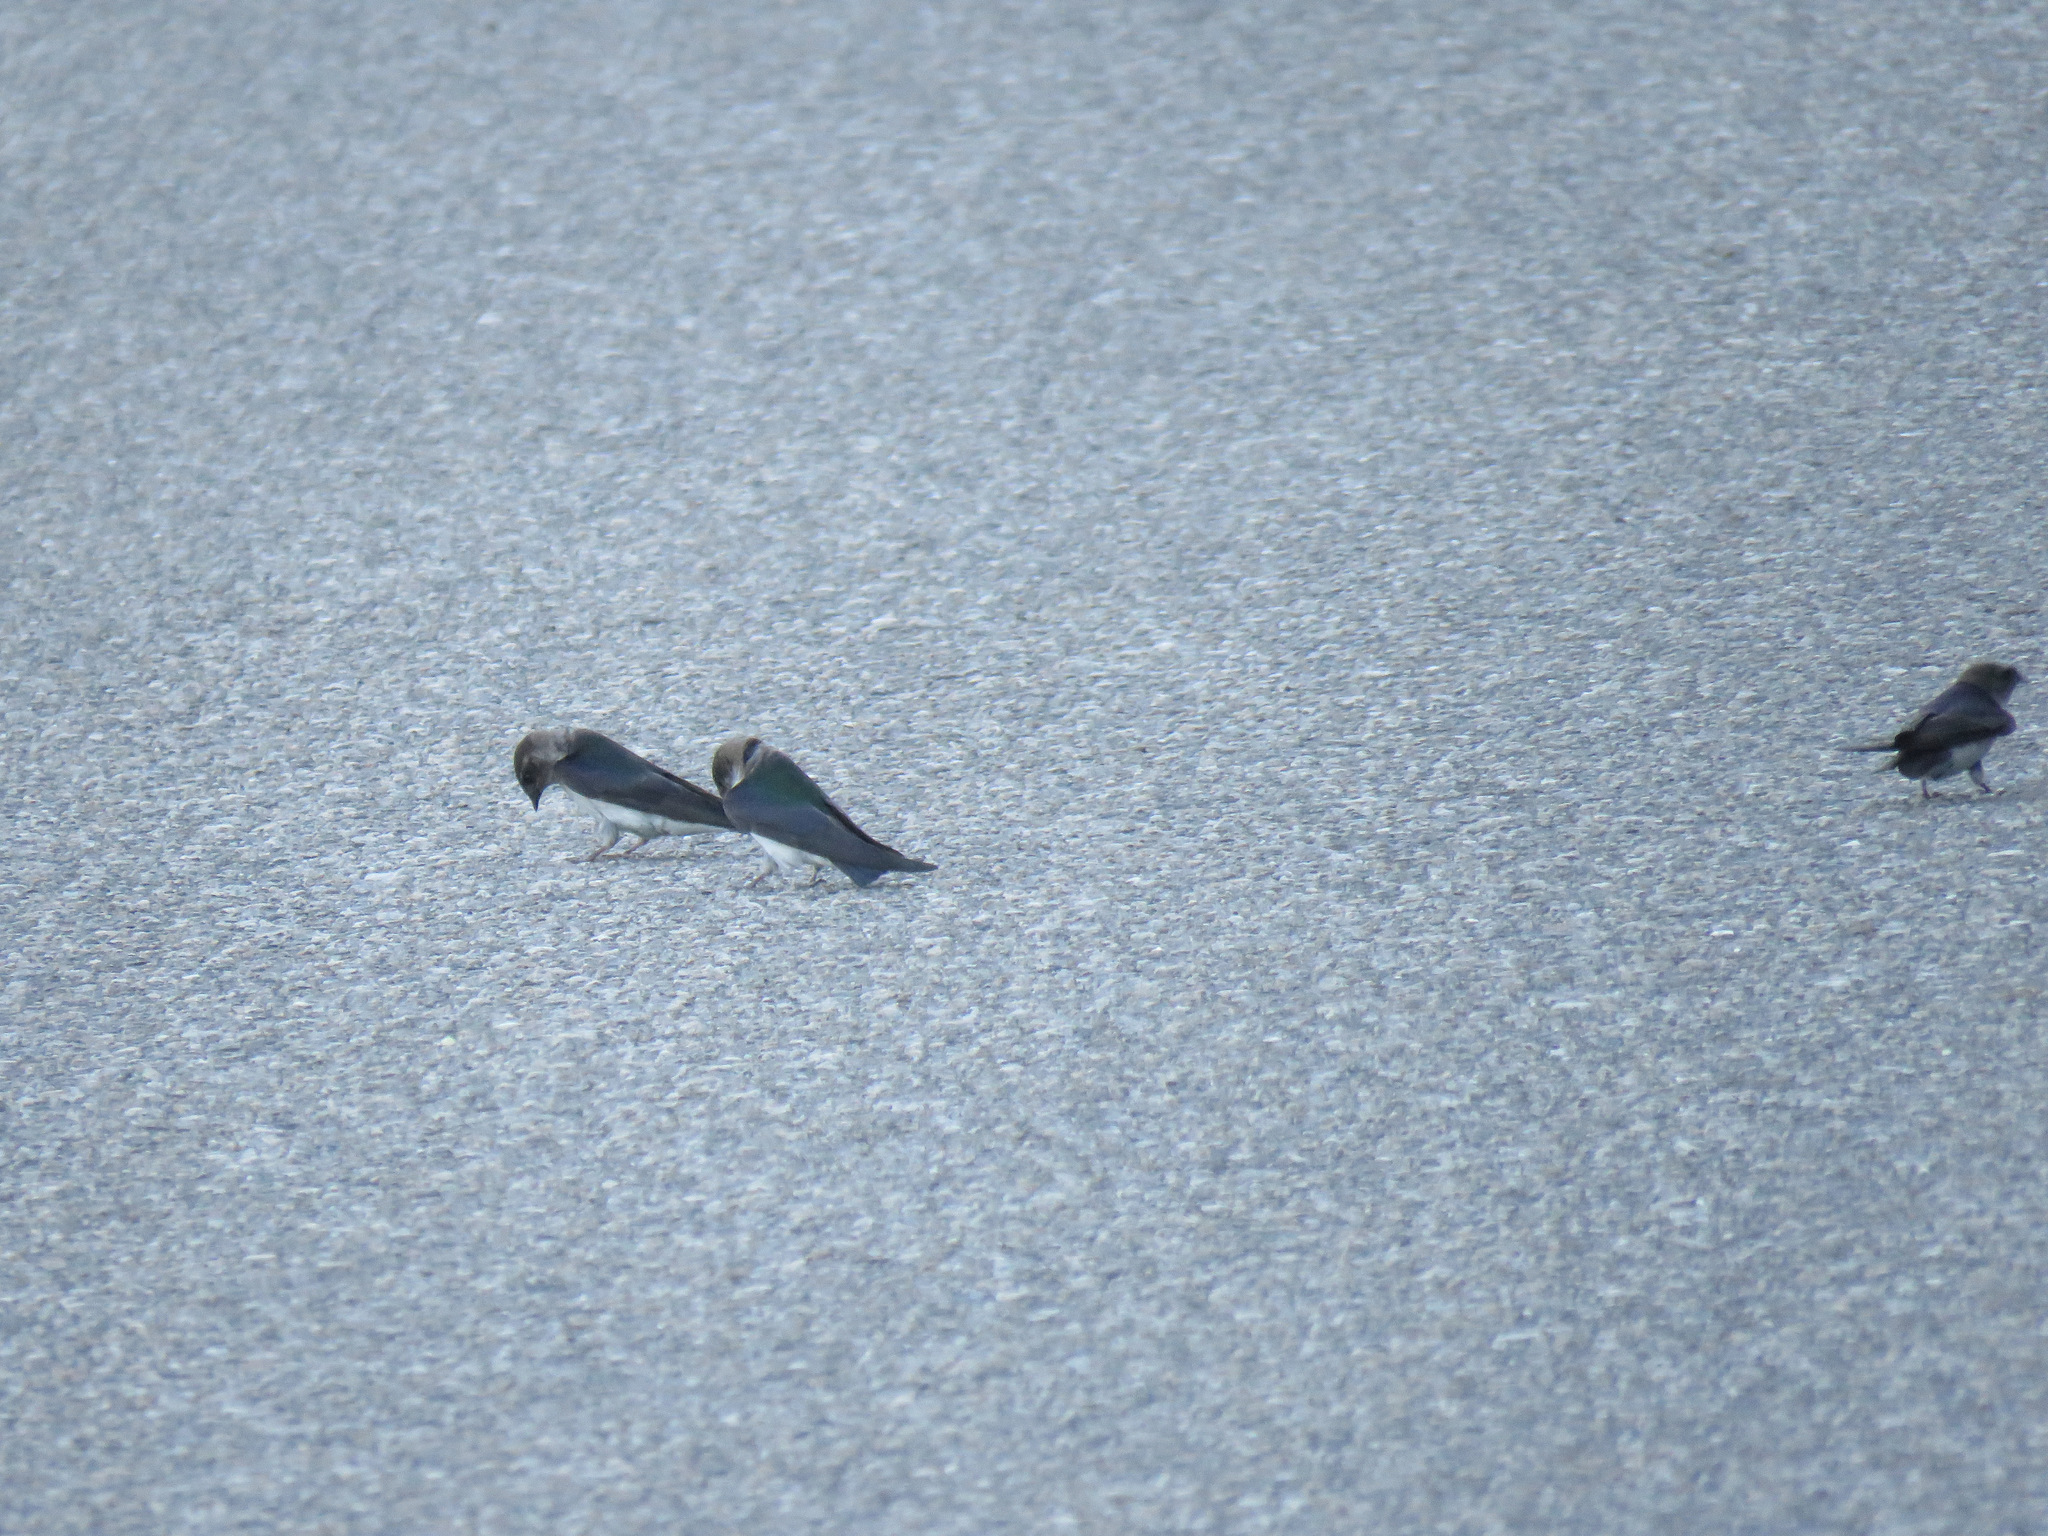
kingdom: Animalia
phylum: Chordata
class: Aves
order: Passeriformes
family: Hirundinidae
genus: Tachycineta
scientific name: Tachycineta thalassina
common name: Violet-green swallow
